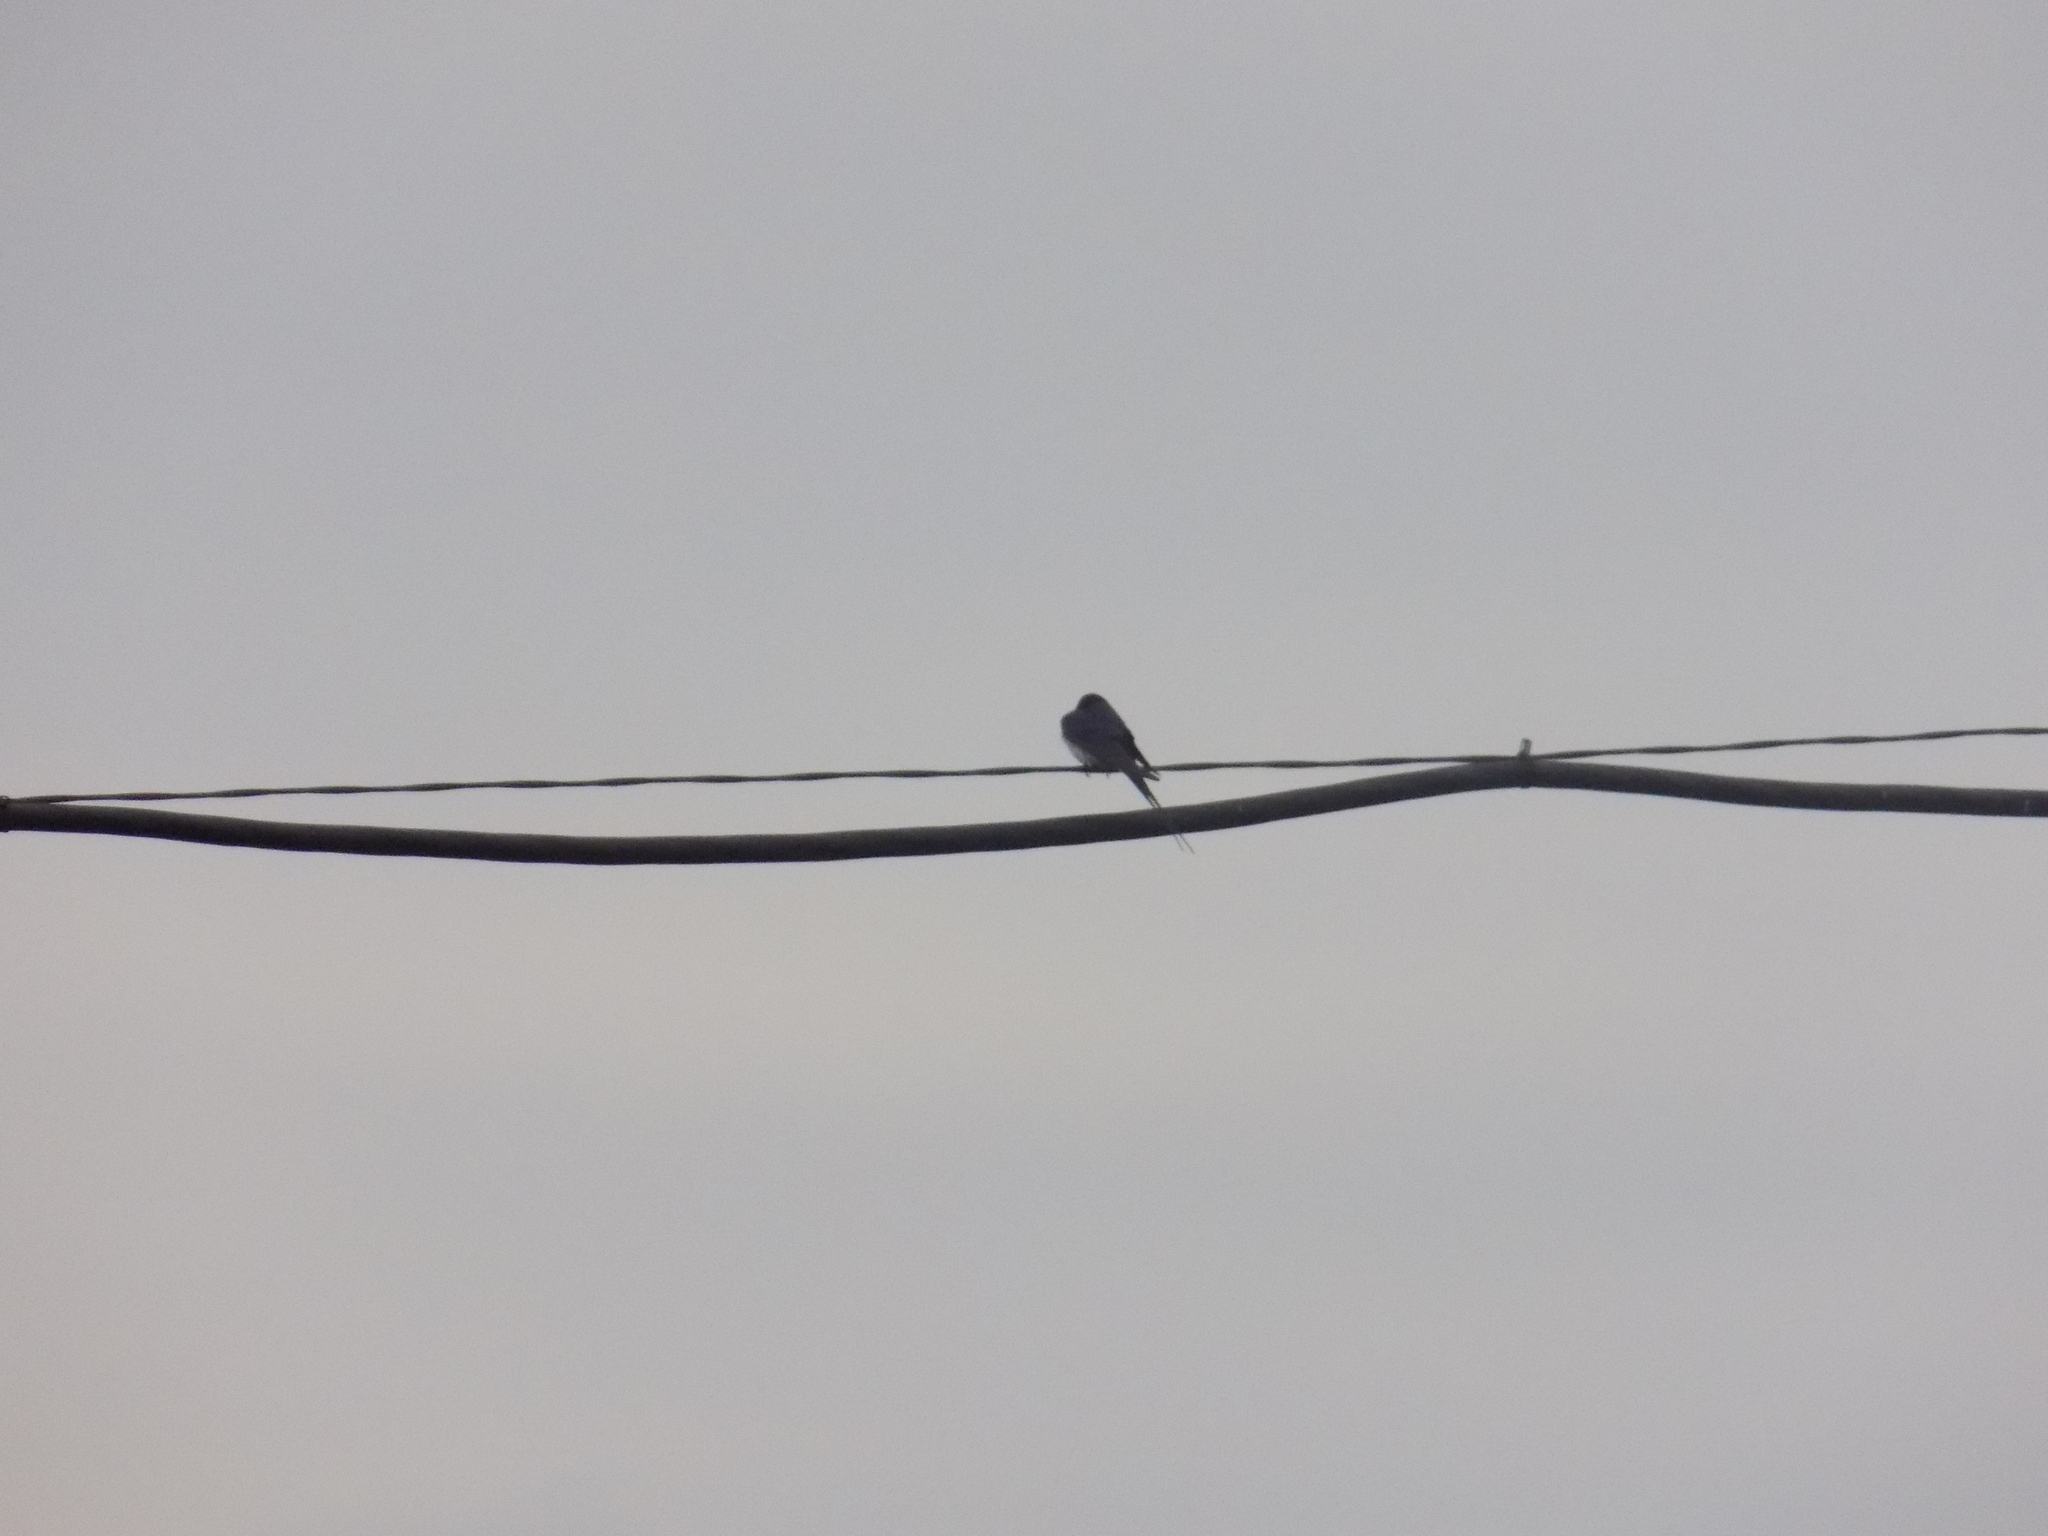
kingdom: Animalia
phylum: Chordata
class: Aves
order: Passeriformes
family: Hirundinidae
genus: Hirundo
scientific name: Hirundo rustica
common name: Barn swallow
